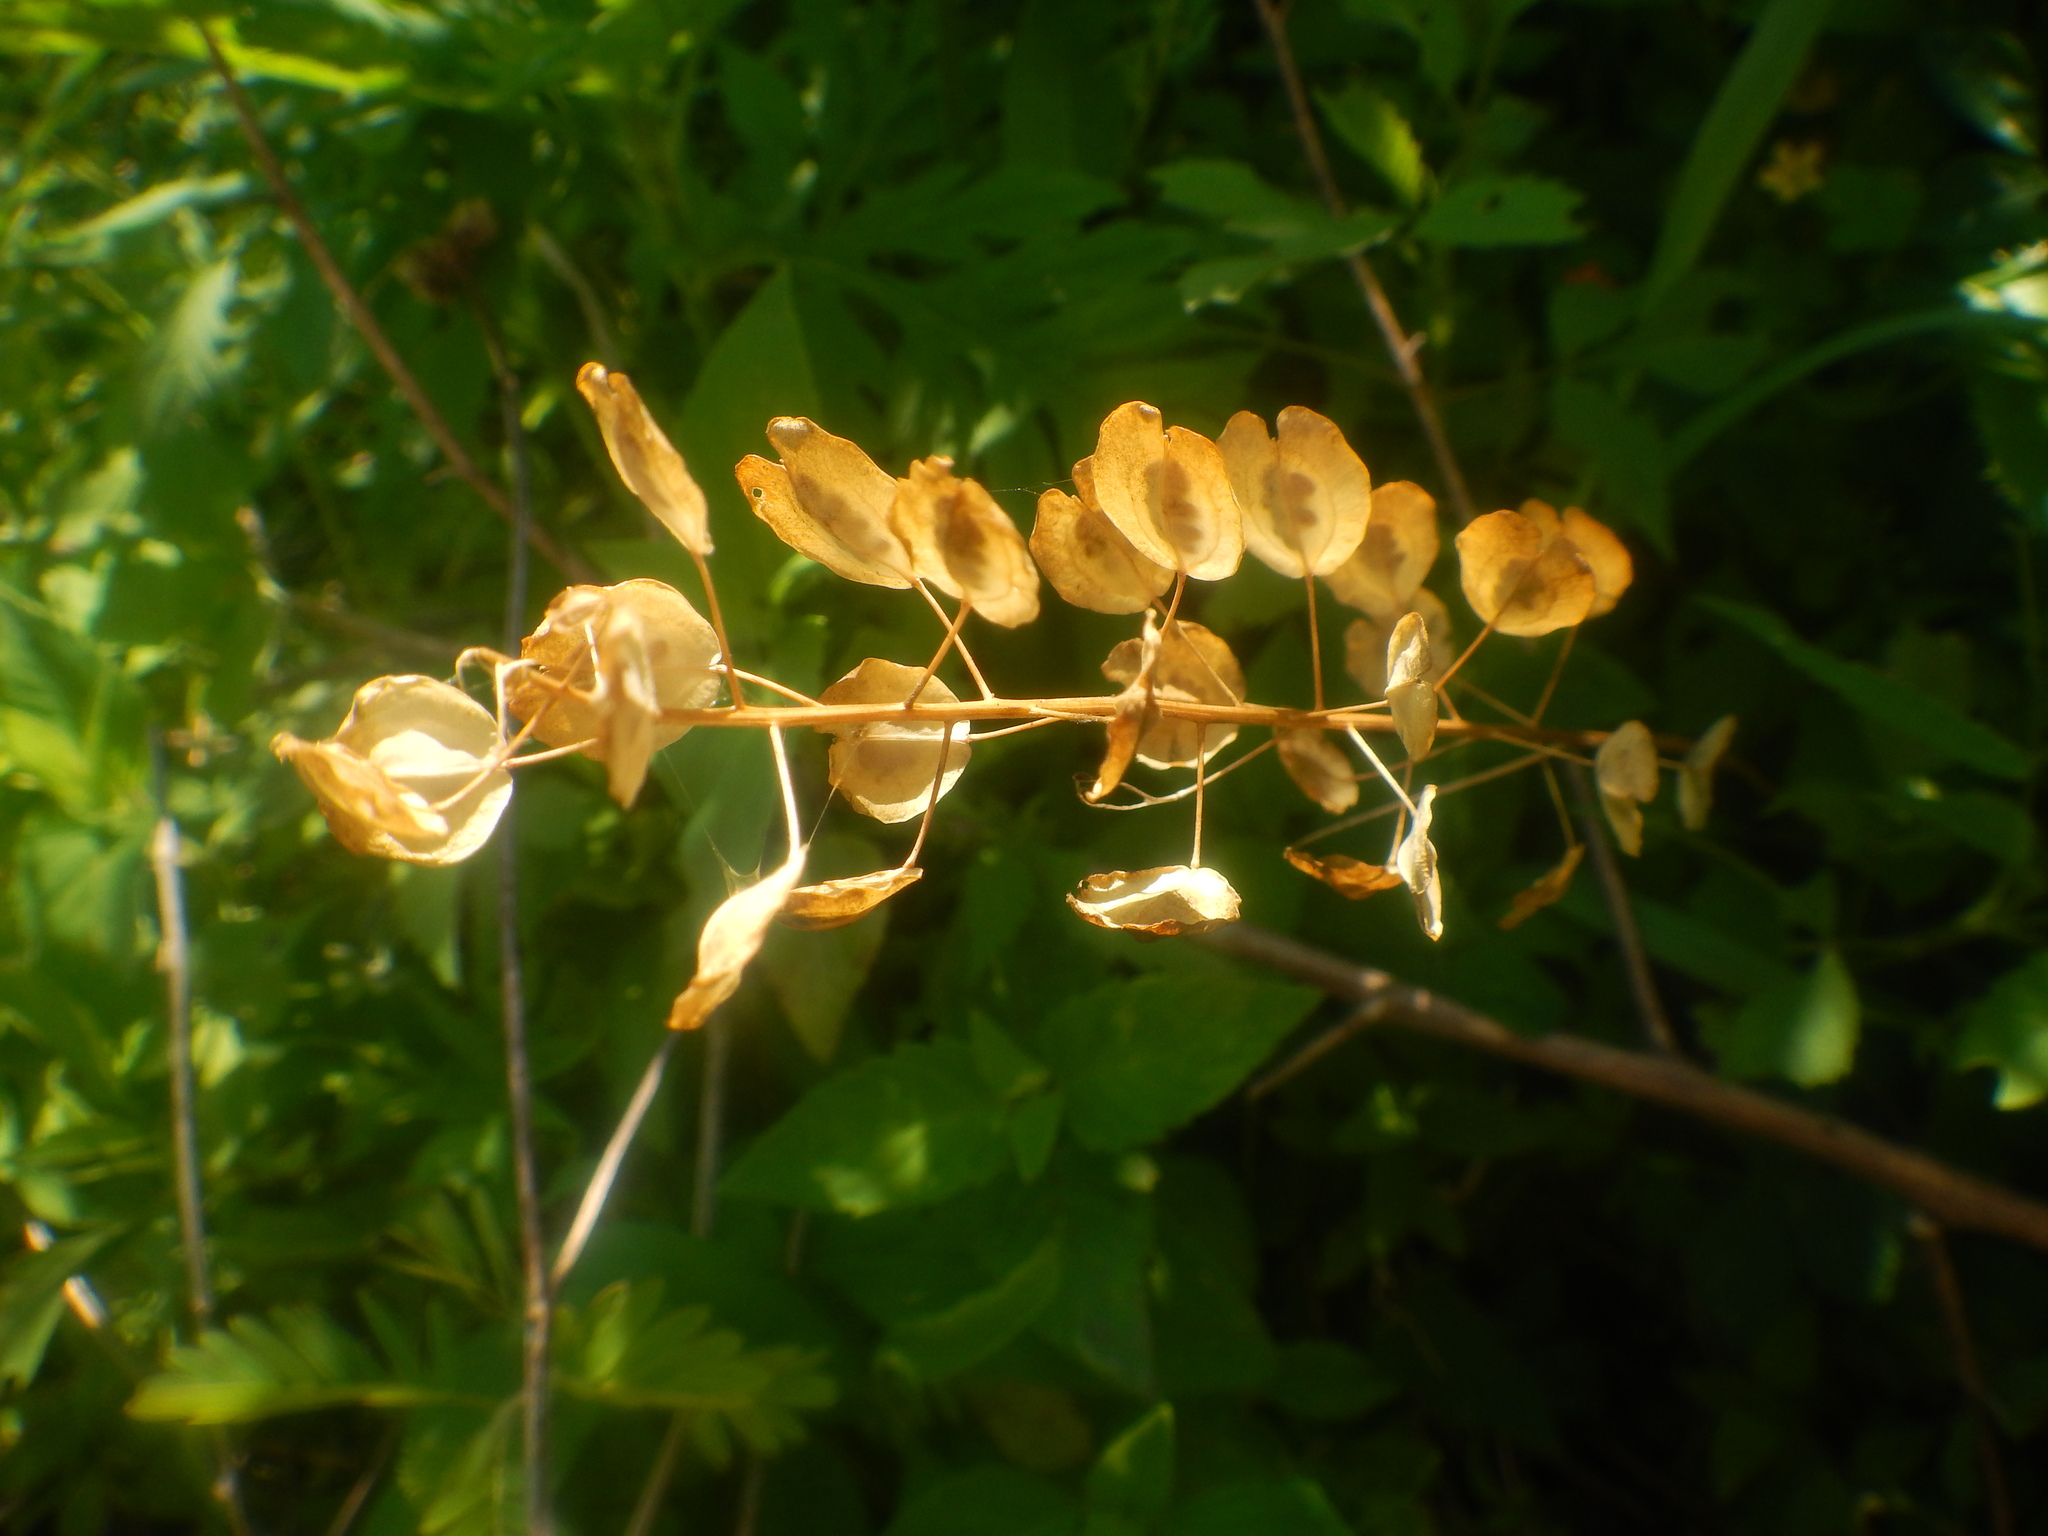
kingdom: Plantae
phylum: Tracheophyta
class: Magnoliopsida
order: Brassicales
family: Brassicaceae
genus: Thlaspi
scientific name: Thlaspi arvense
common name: Field pennycress
